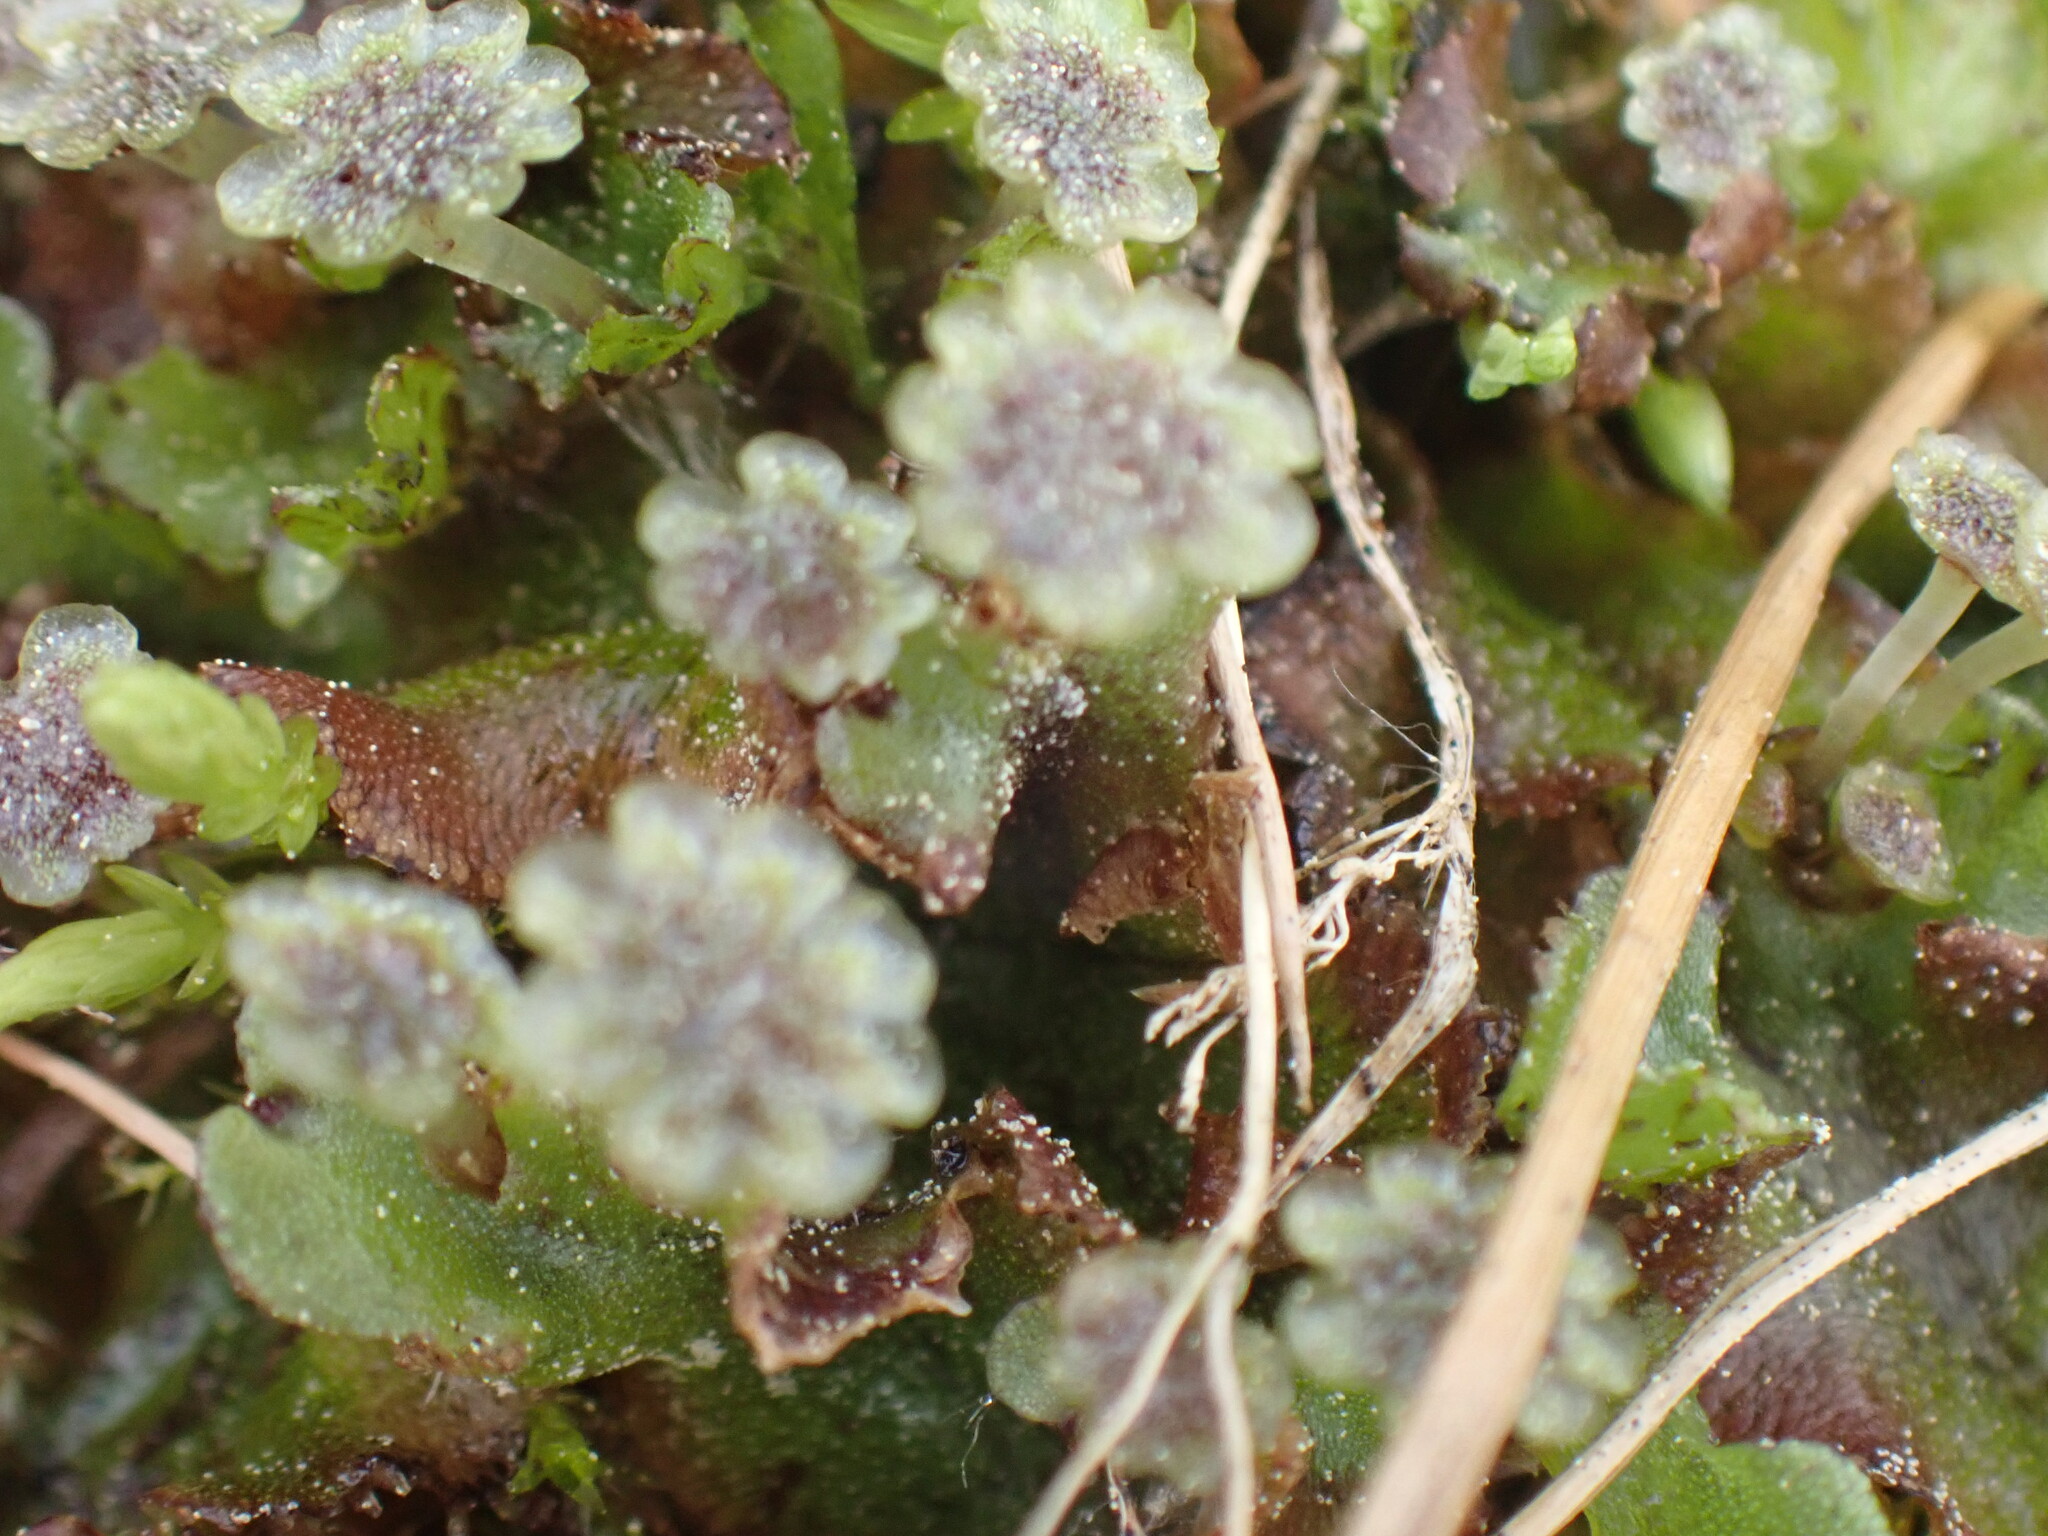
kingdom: Plantae
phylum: Marchantiophyta
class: Marchantiopsida
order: Marchantiales
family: Marchantiaceae
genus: Marchantia
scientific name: Marchantia polymorpha
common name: Common liverwort
